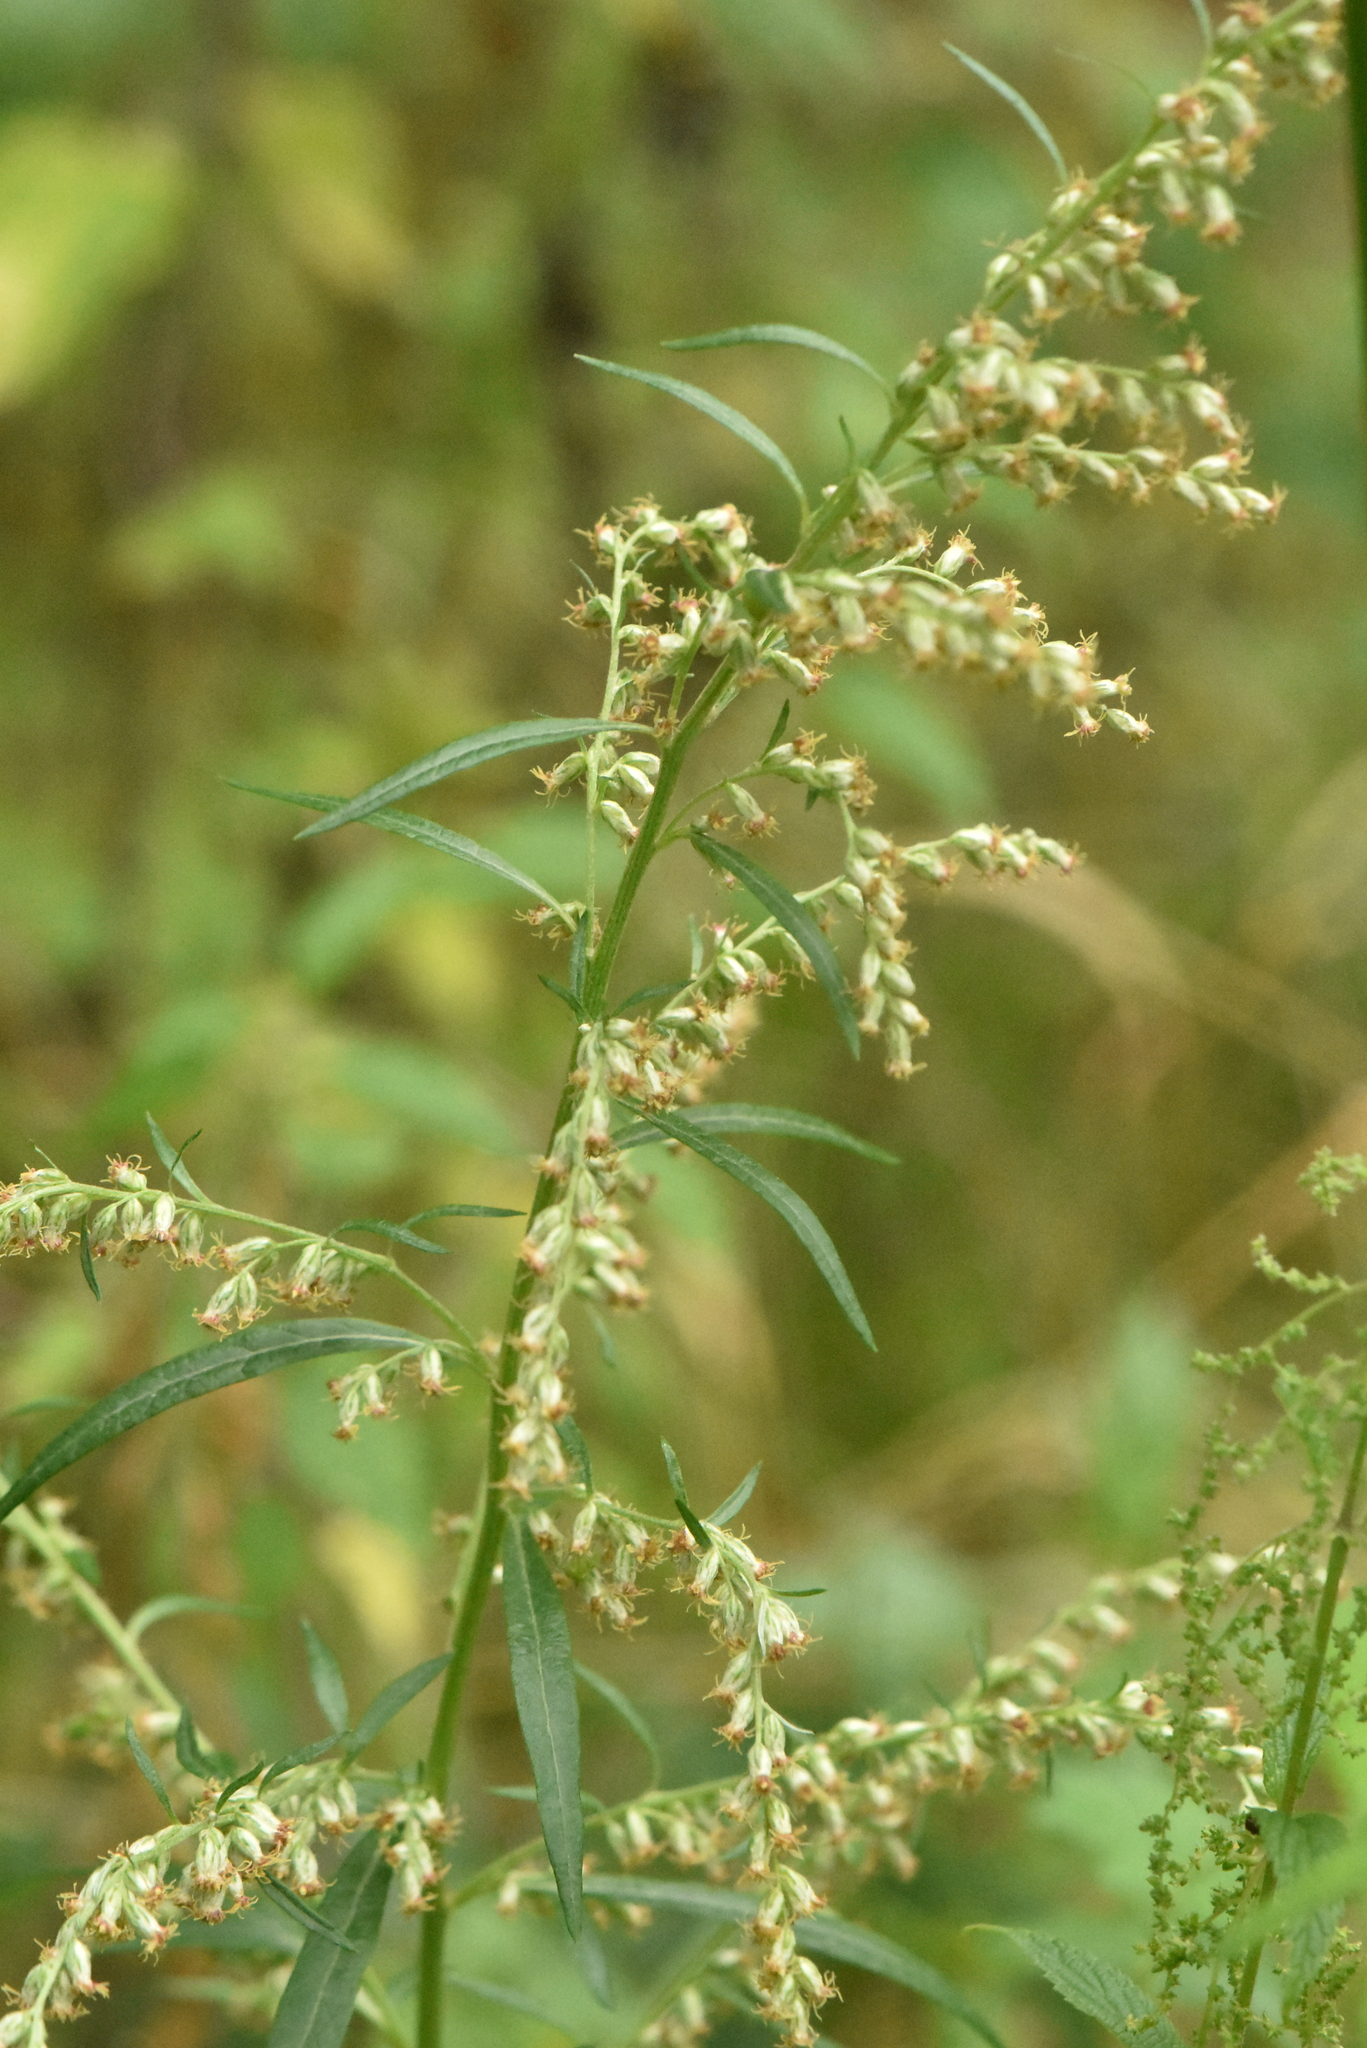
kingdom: Plantae
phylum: Tracheophyta
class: Magnoliopsida
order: Asterales
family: Asteraceae
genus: Artemisia
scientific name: Artemisia vulgaris
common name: Mugwort
